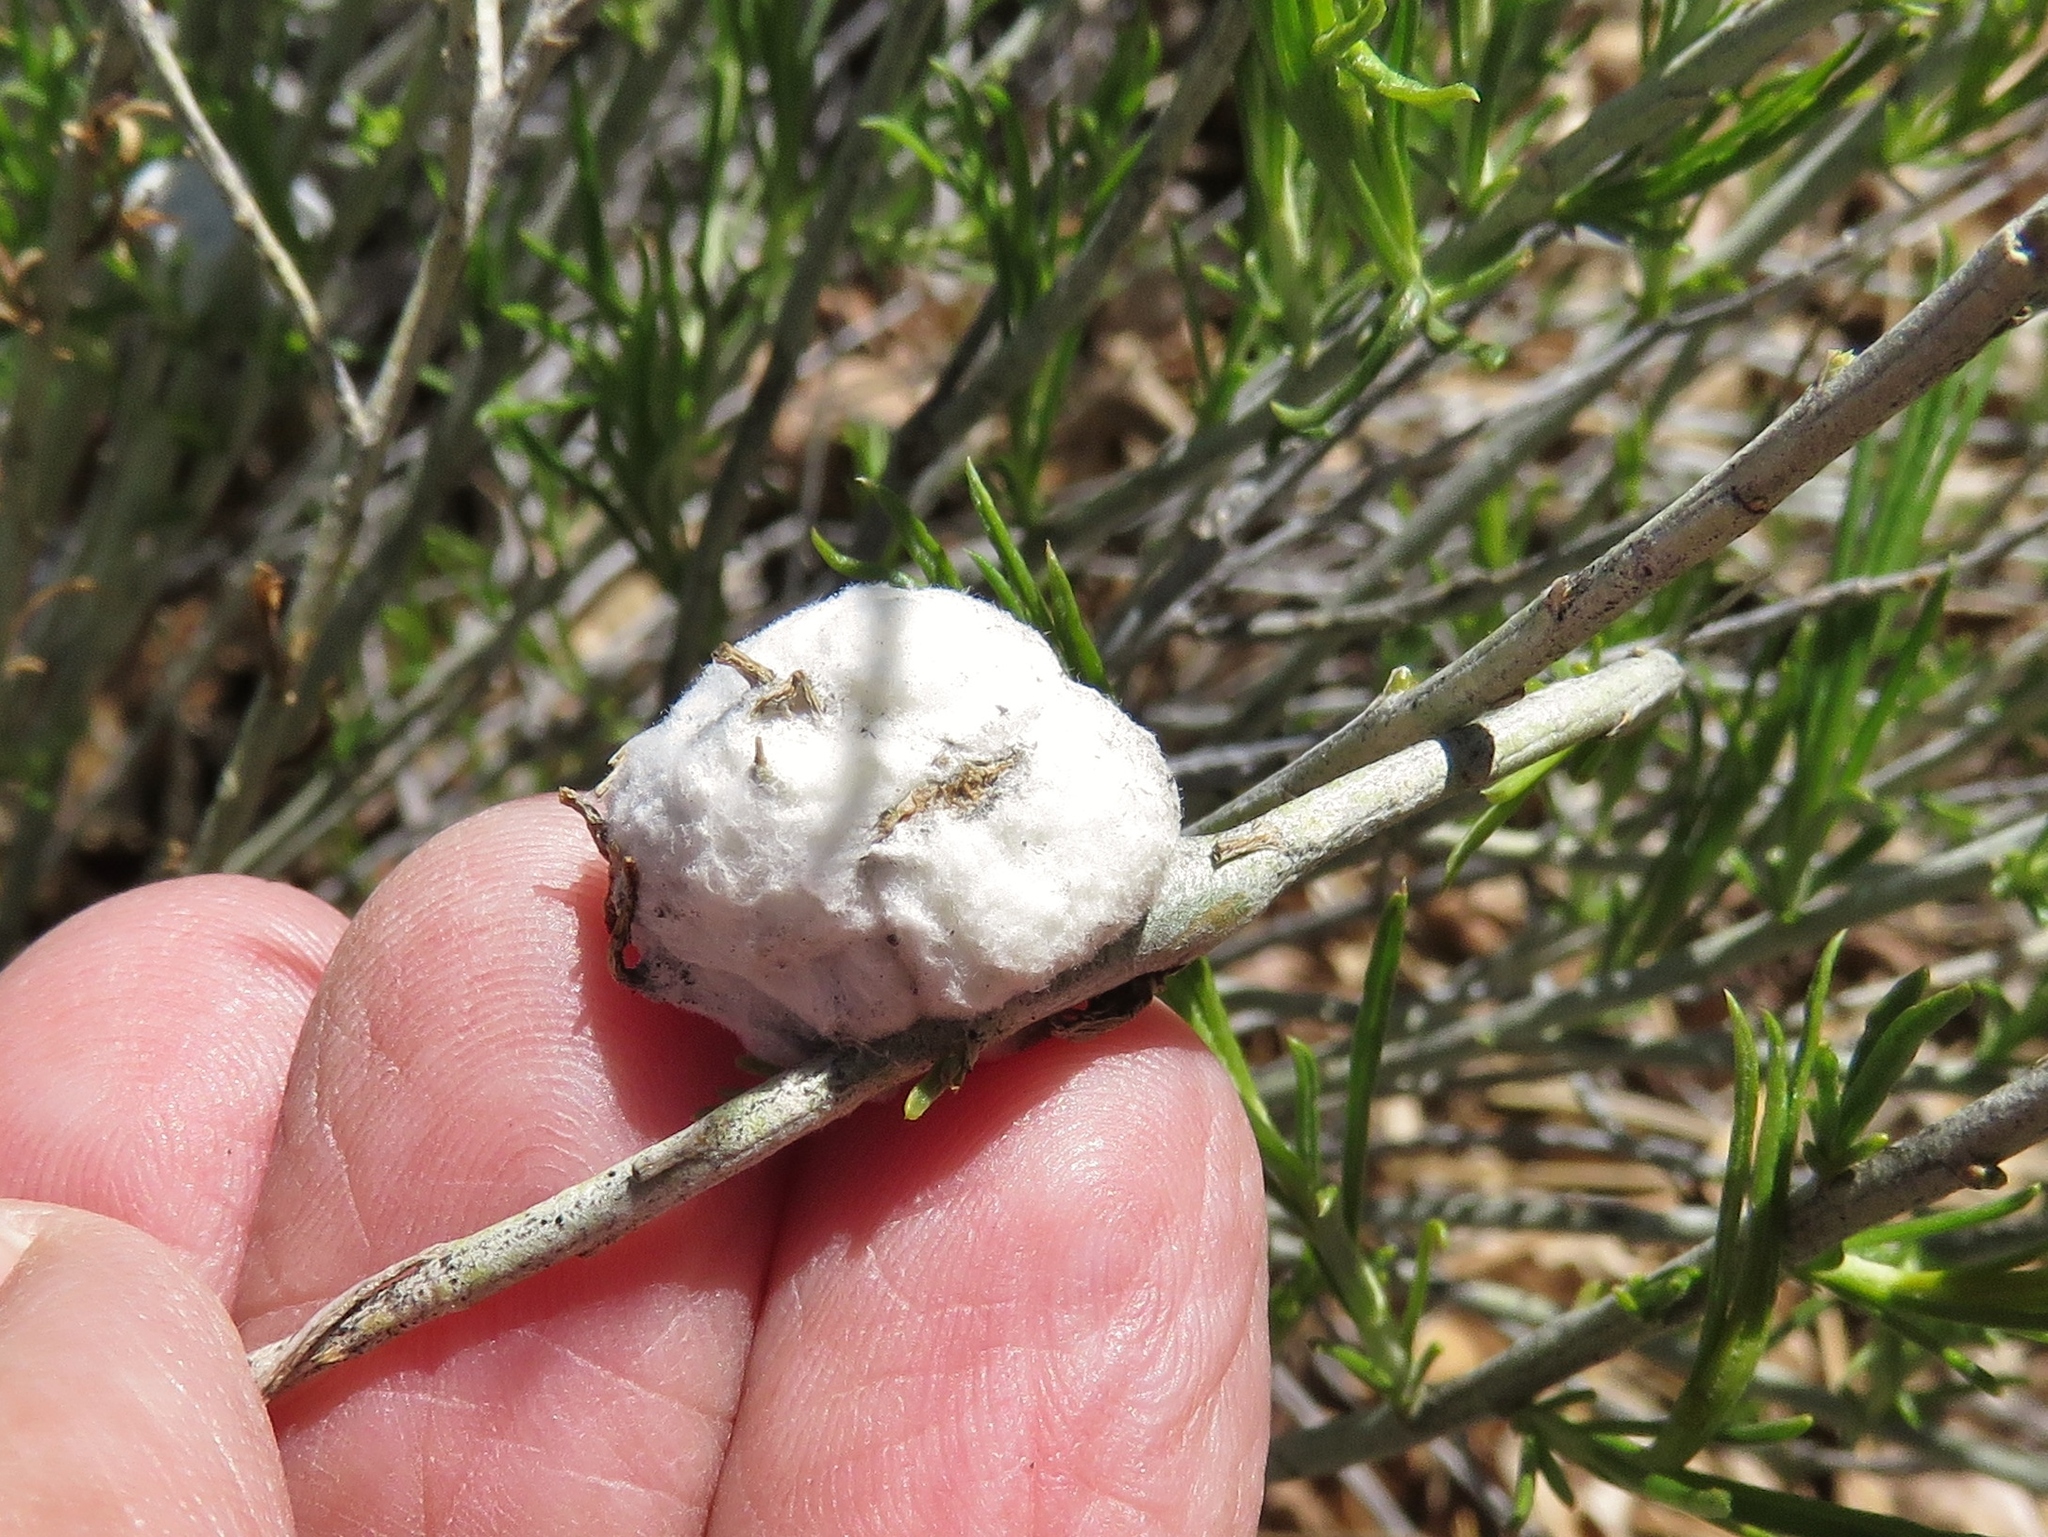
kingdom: Animalia
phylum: Arthropoda
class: Insecta
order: Diptera
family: Tephritidae
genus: Aciurina
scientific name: Aciurina bigeloviae
